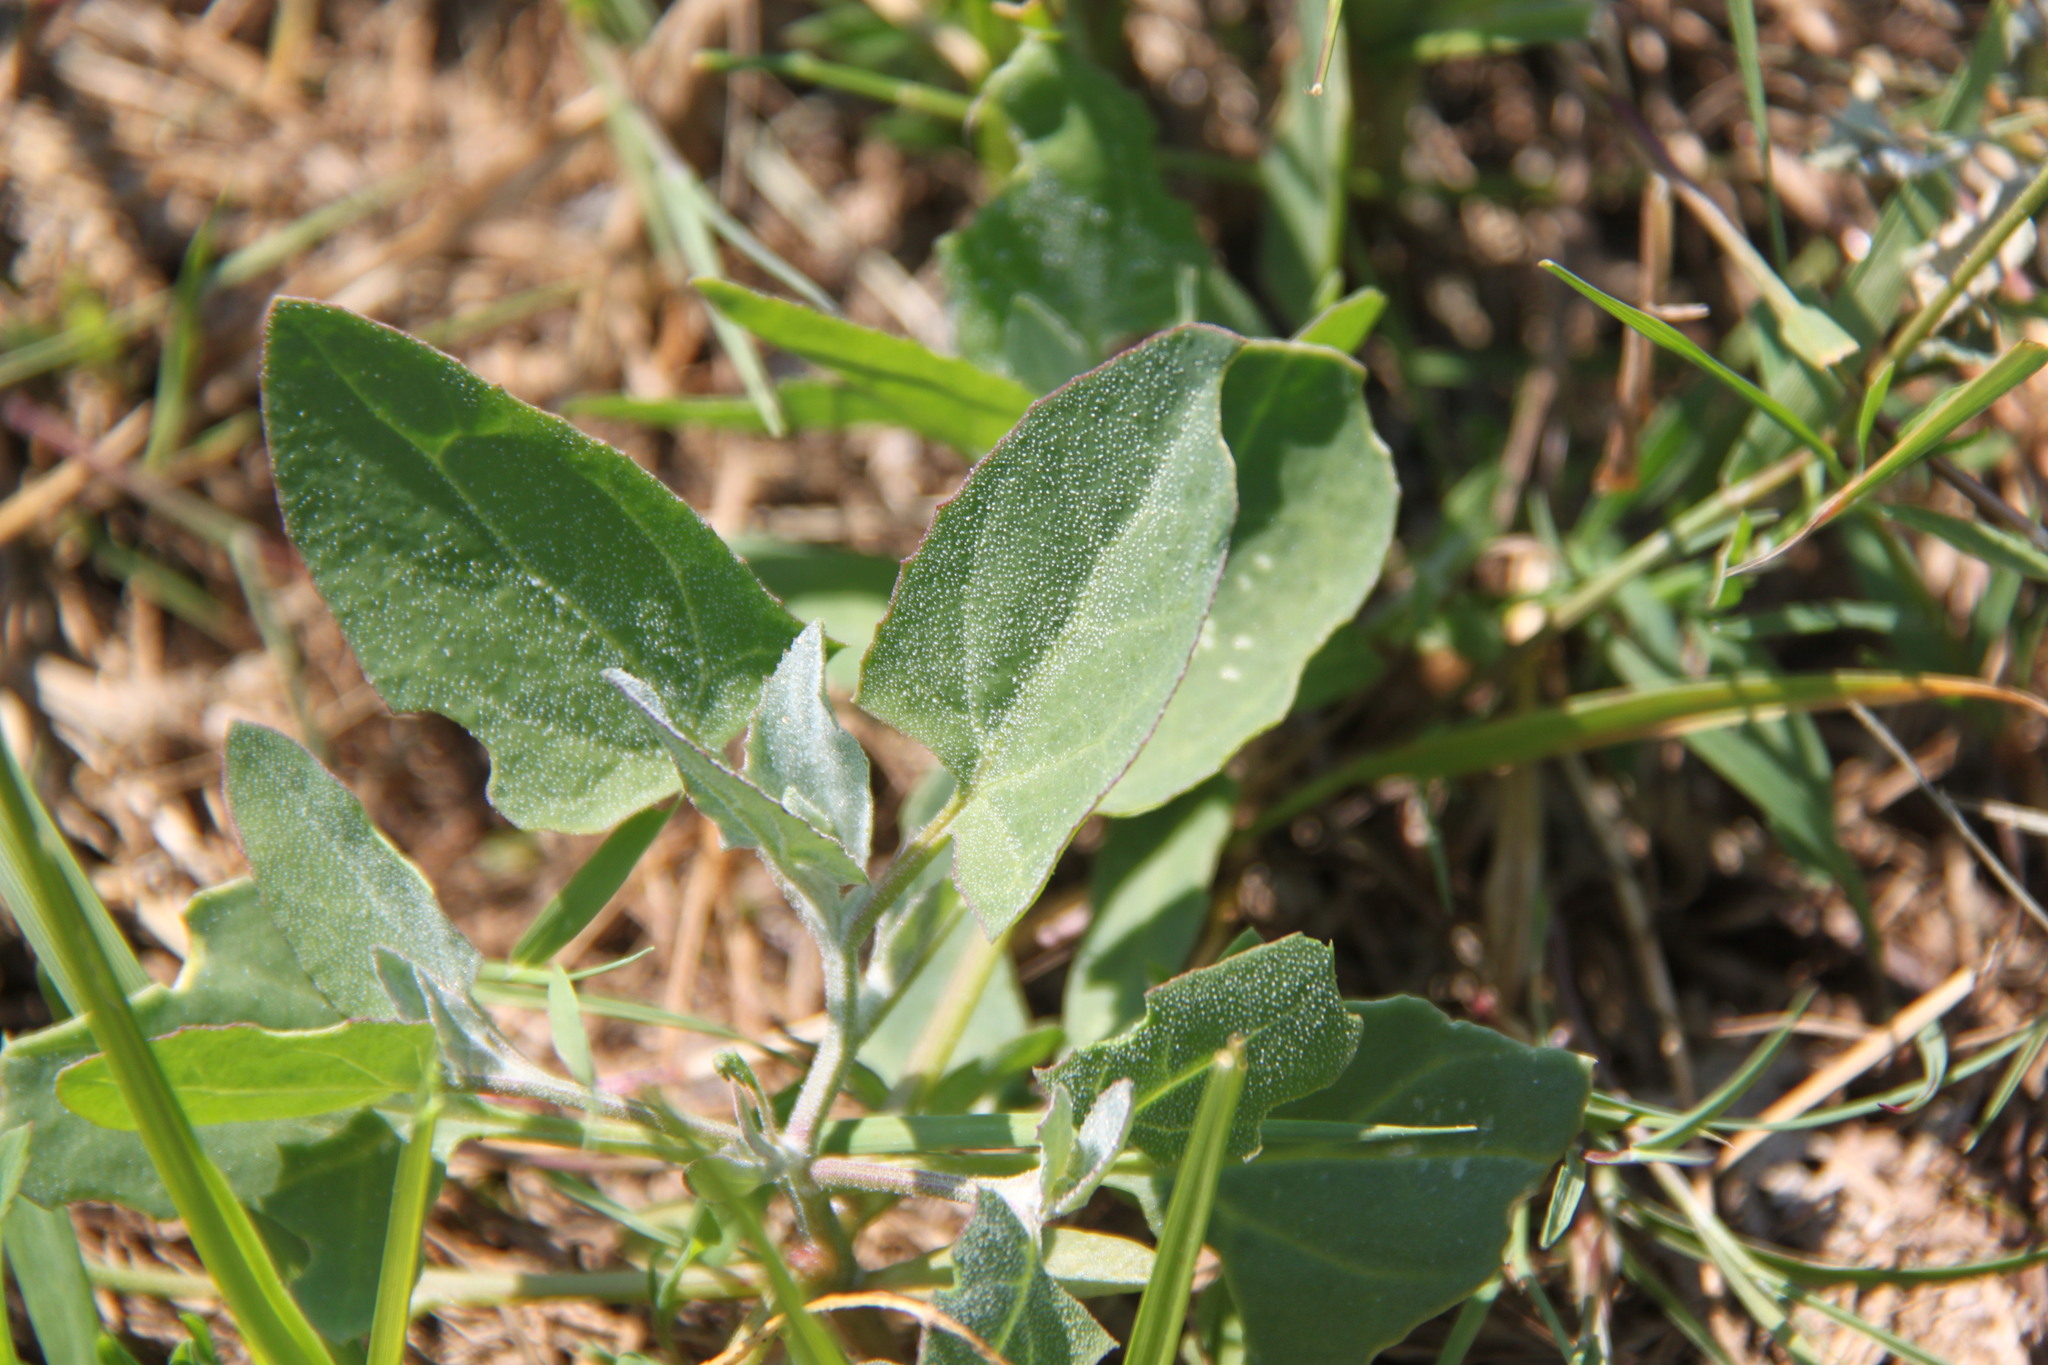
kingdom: Plantae
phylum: Tracheophyta
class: Magnoliopsida
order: Caryophyllales
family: Amaranthaceae
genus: Atriplex
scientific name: Atriplex prostrata
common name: Spear-leaved orache
